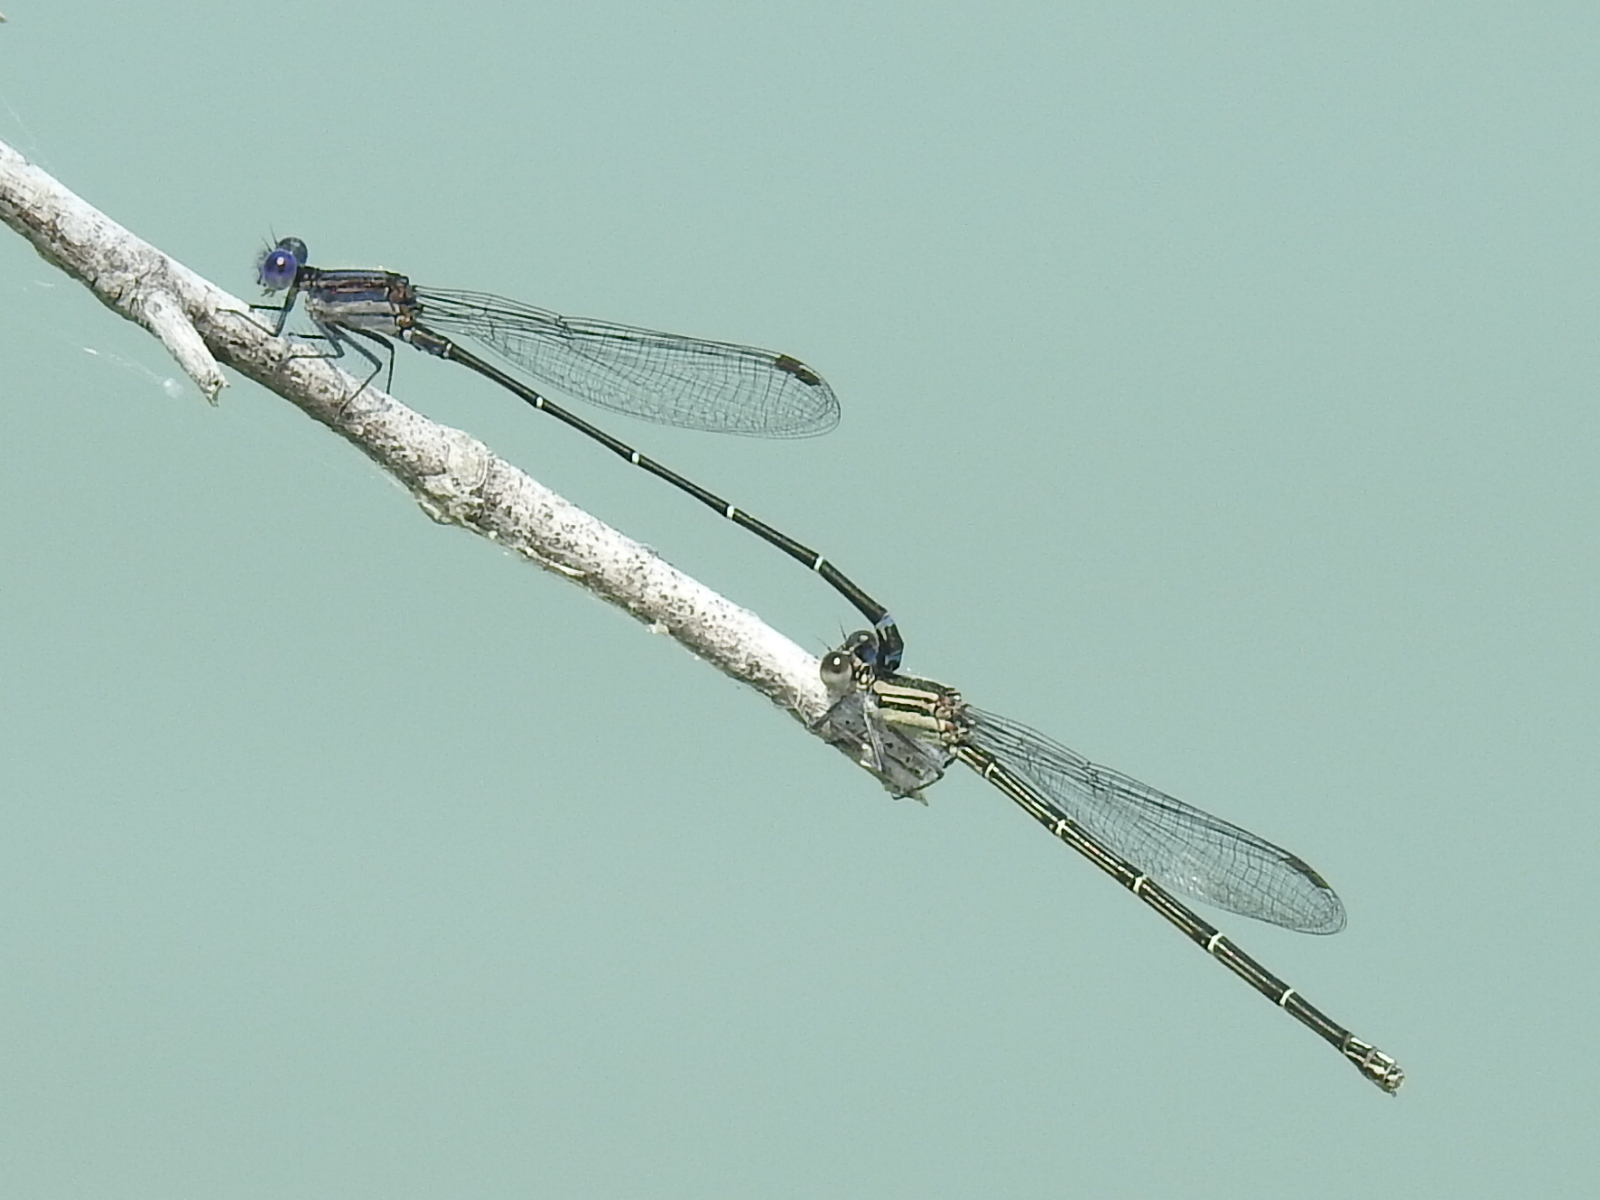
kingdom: Animalia
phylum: Arthropoda
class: Insecta
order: Odonata
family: Coenagrionidae
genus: Argia
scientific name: Argia translata
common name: Dusky dancer
